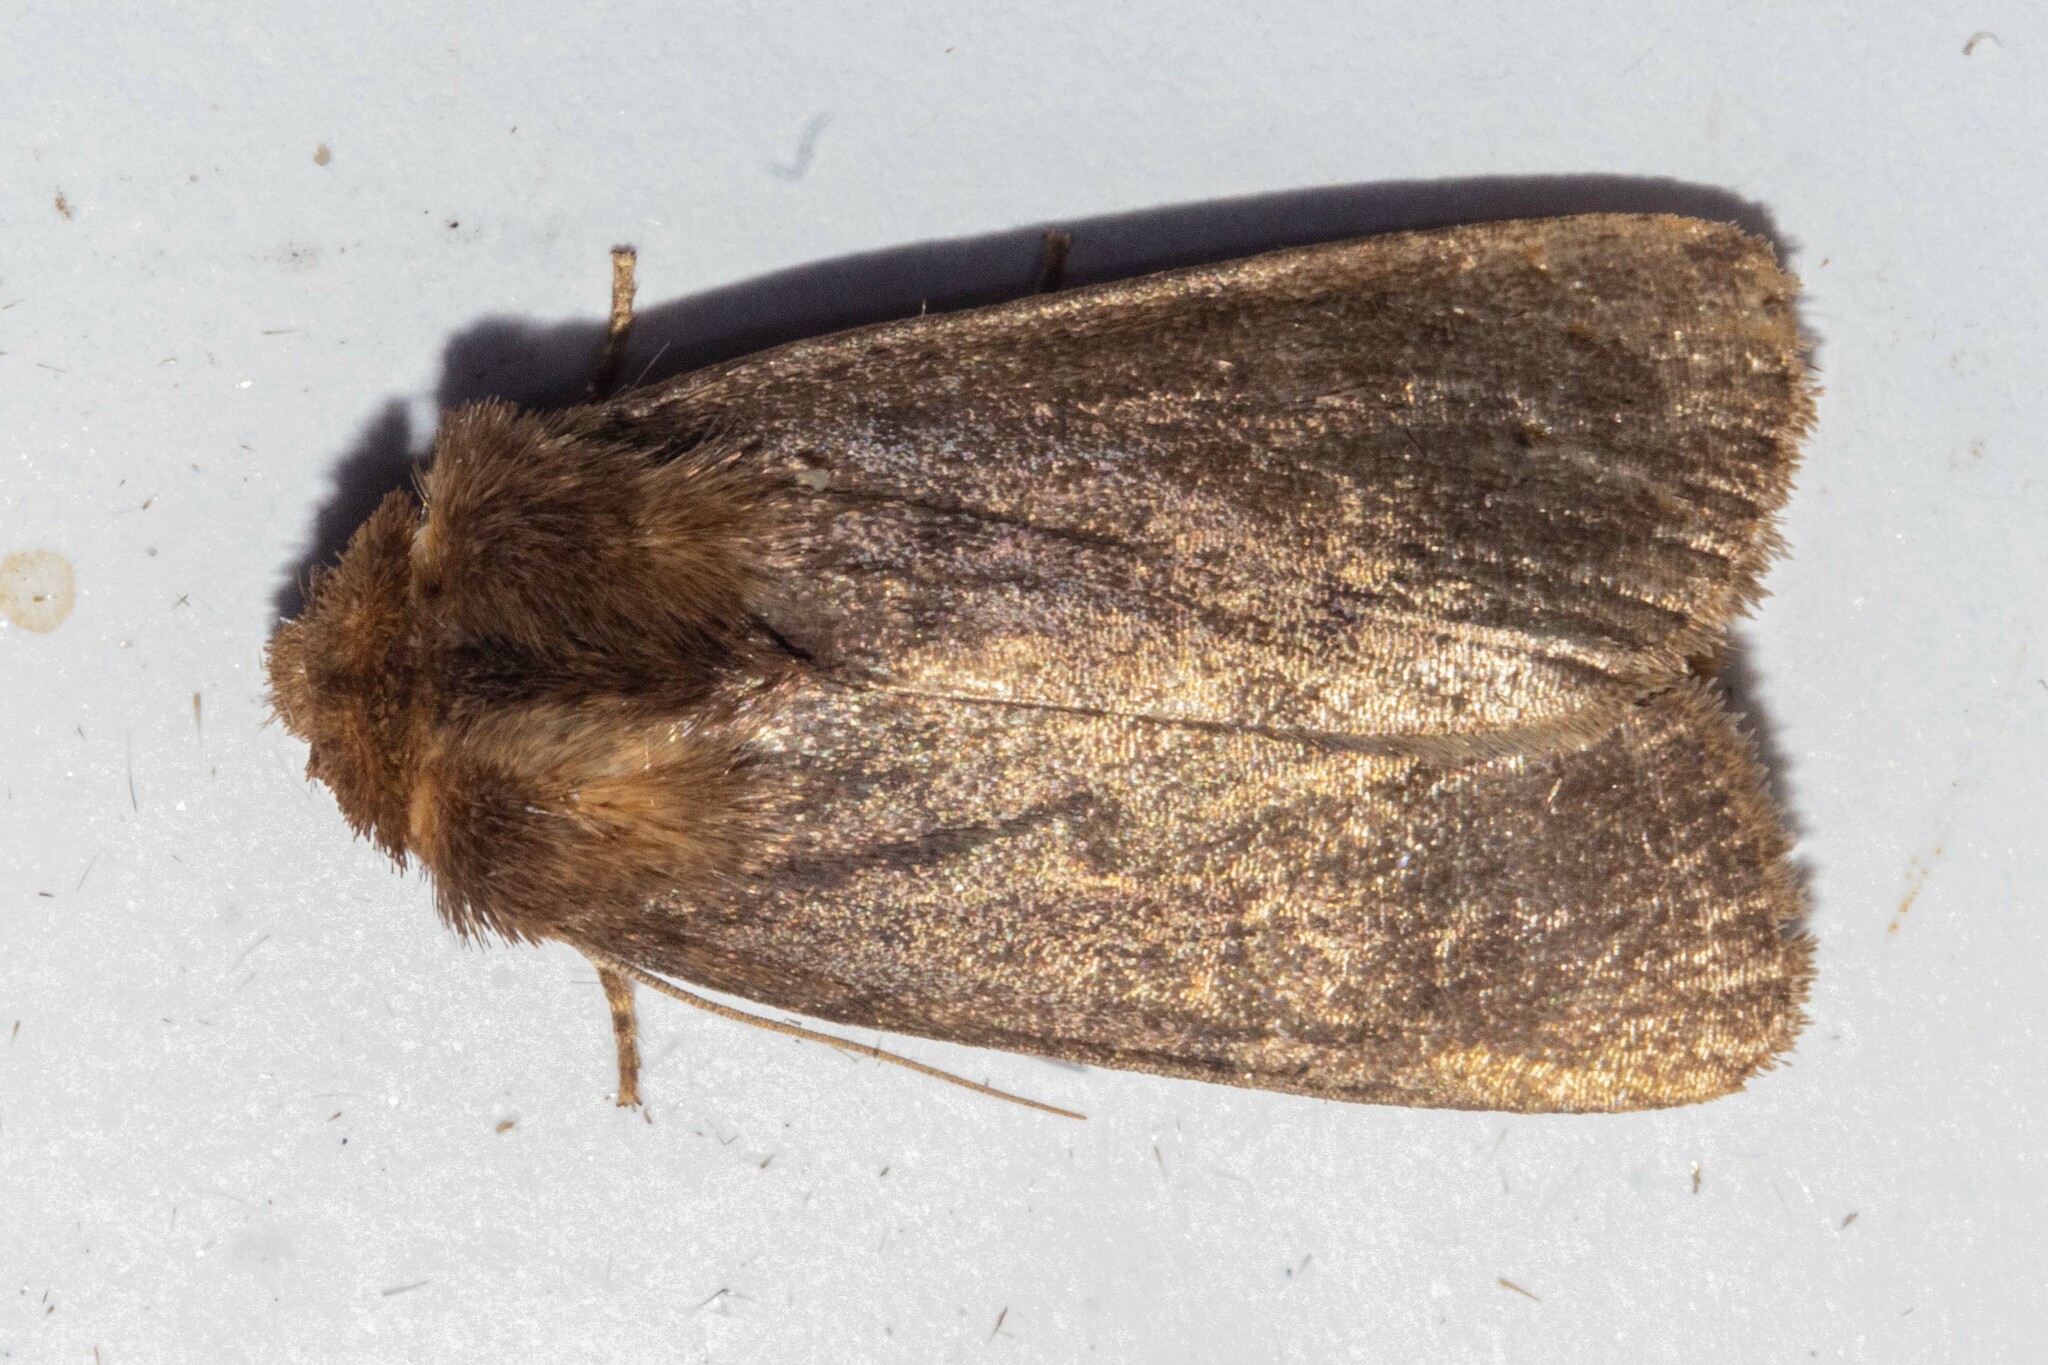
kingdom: Animalia
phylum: Arthropoda
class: Insecta
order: Lepidoptera
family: Noctuidae
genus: Bityla
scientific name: Bityla defigurata
